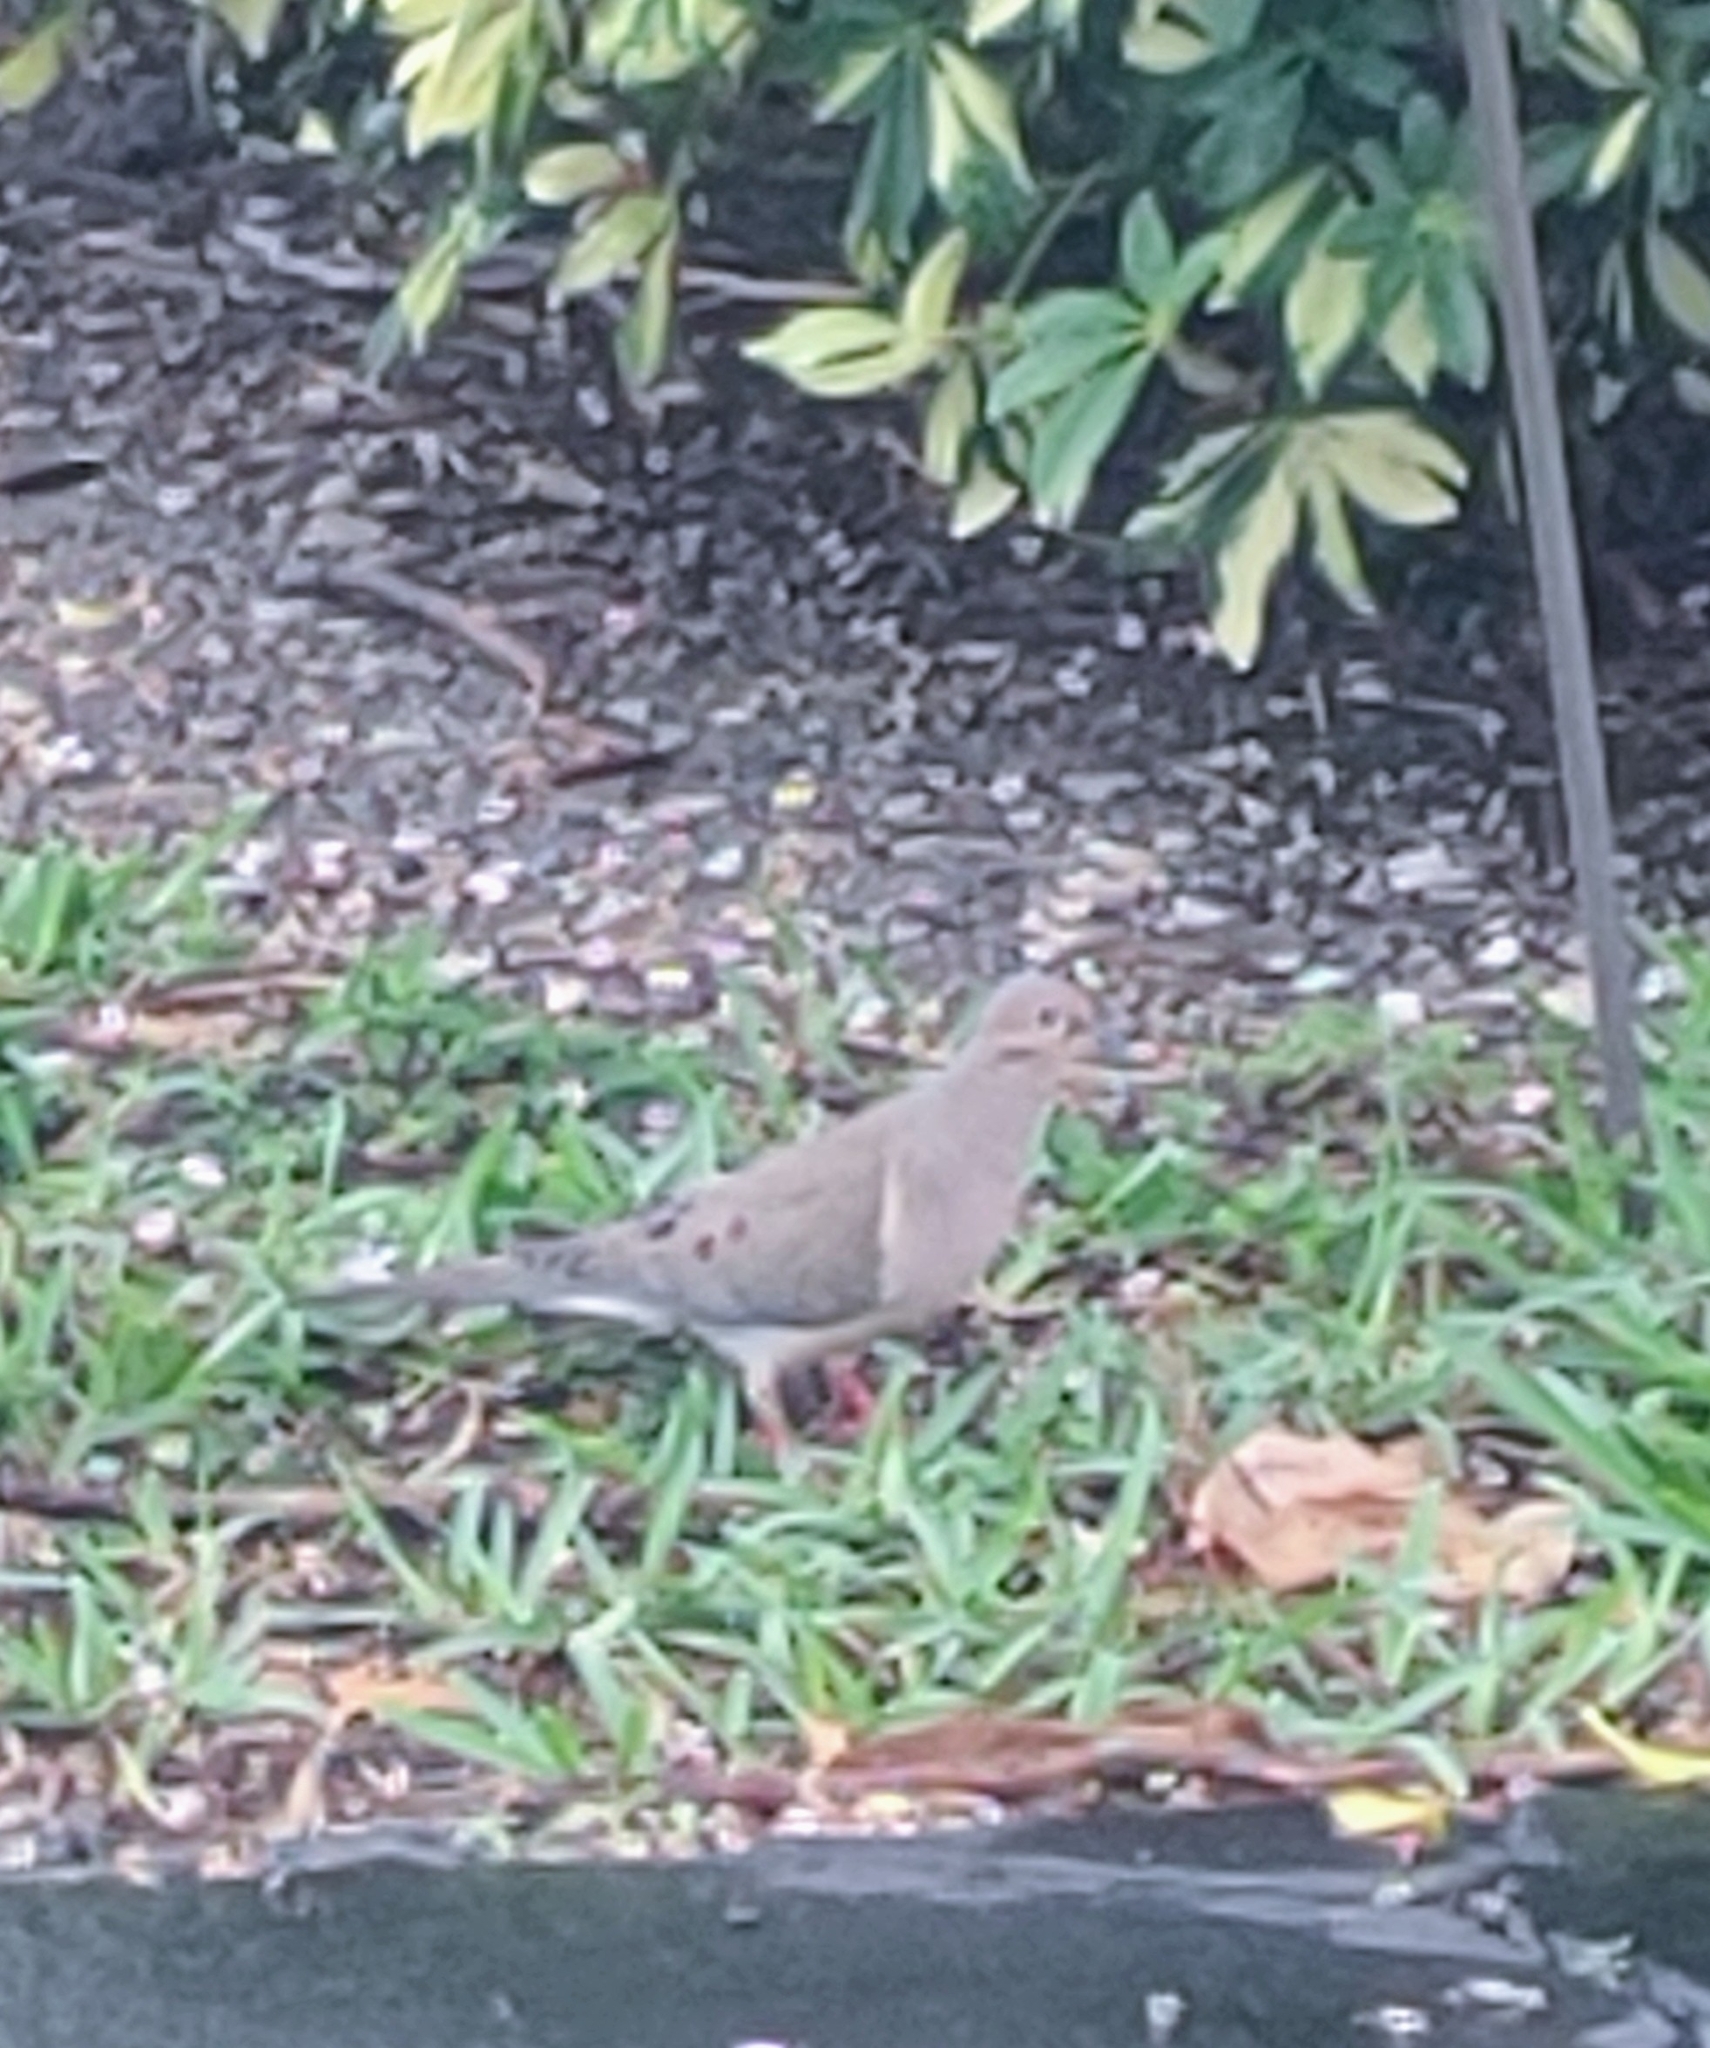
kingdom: Animalia
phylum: Chordata
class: Aves
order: Columbiformes
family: Columbidae
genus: Zenaida
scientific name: Zenaida macroura
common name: Mourning dove
